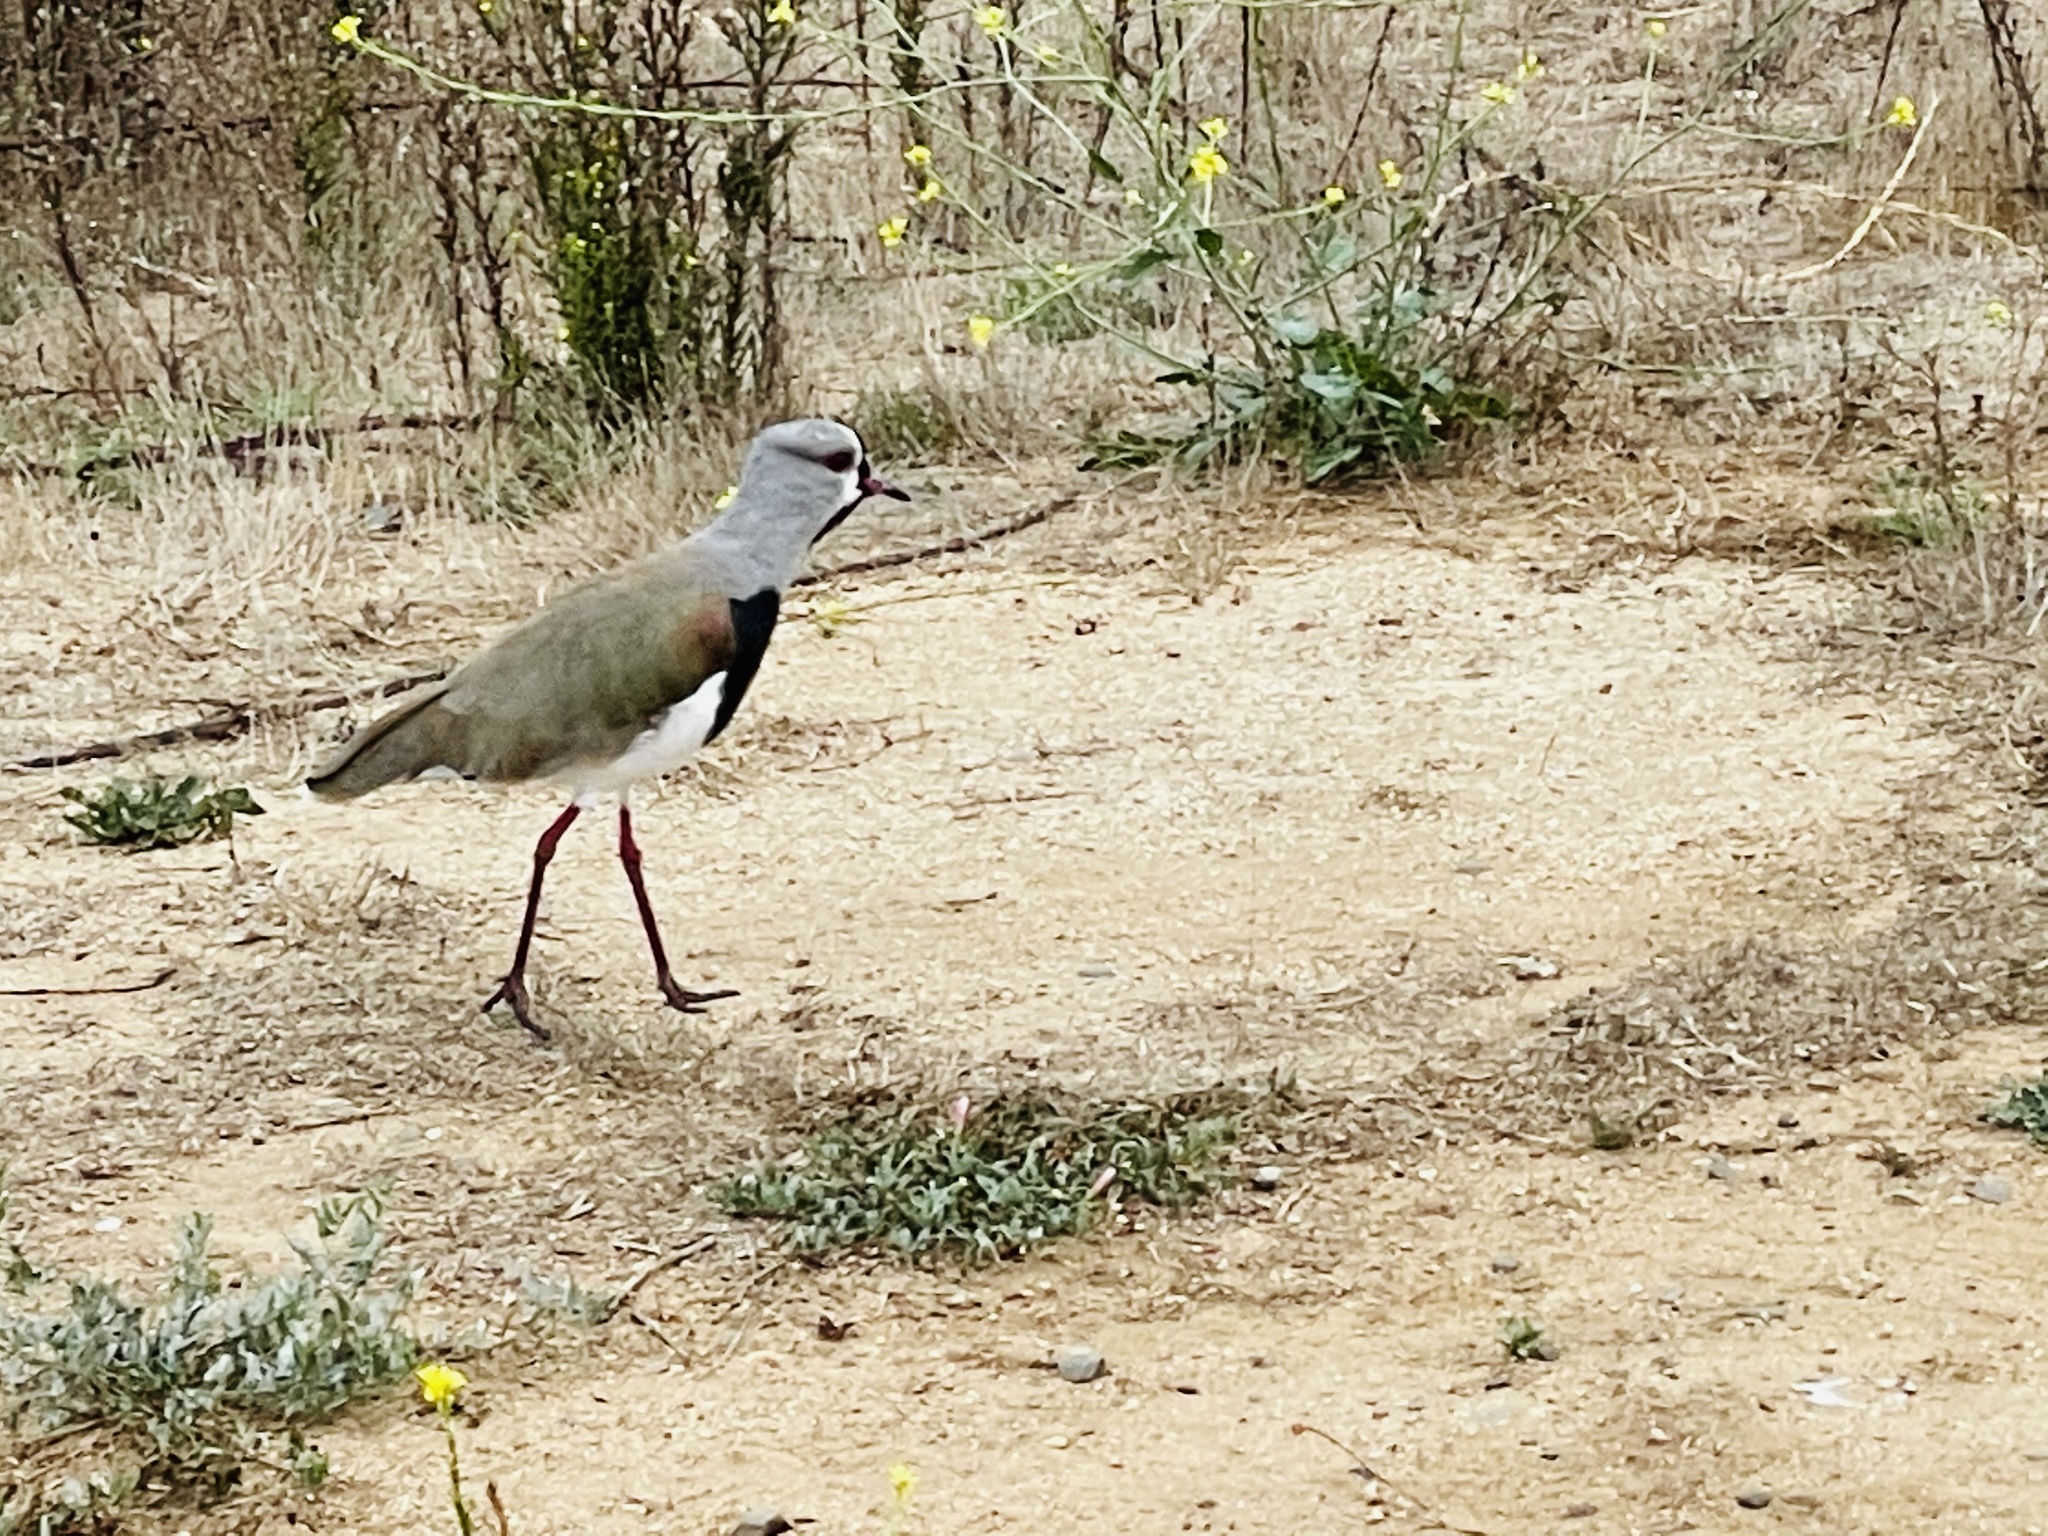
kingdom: Animalia
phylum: Chordata
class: Aves
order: Charadriiformes
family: Charadriidae
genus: Vanellus
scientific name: Vanellus chilensis
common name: Southern lapwing
